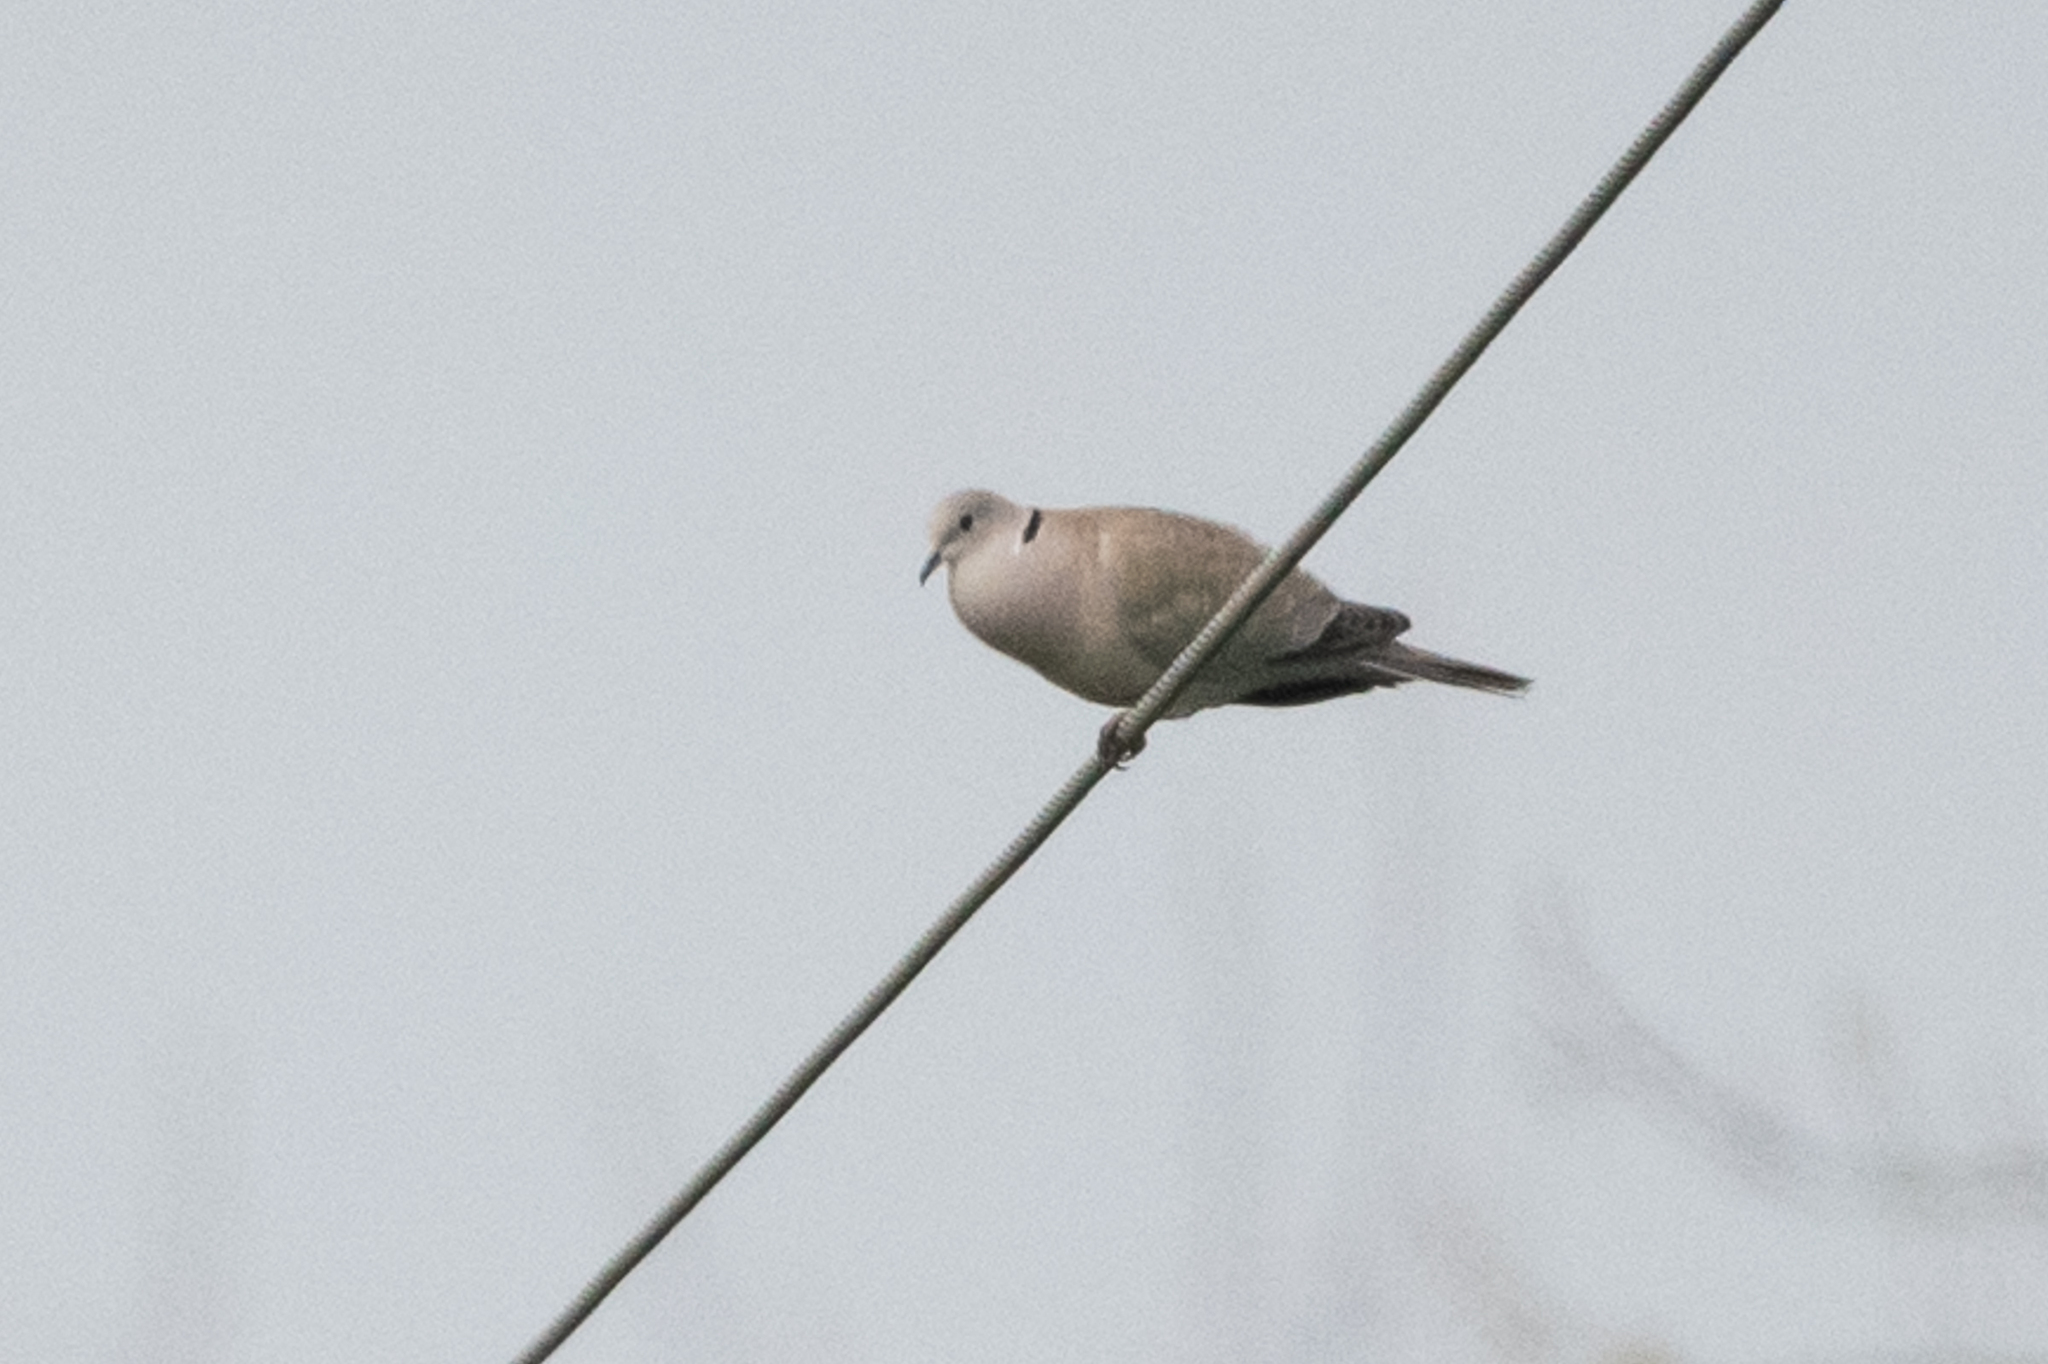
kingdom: Animalia
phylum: Chordata
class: Aves
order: Columbiformes
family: Columbidae
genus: Streptopelia
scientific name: Streptopelia decaocto
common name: Eurasian collared dove
